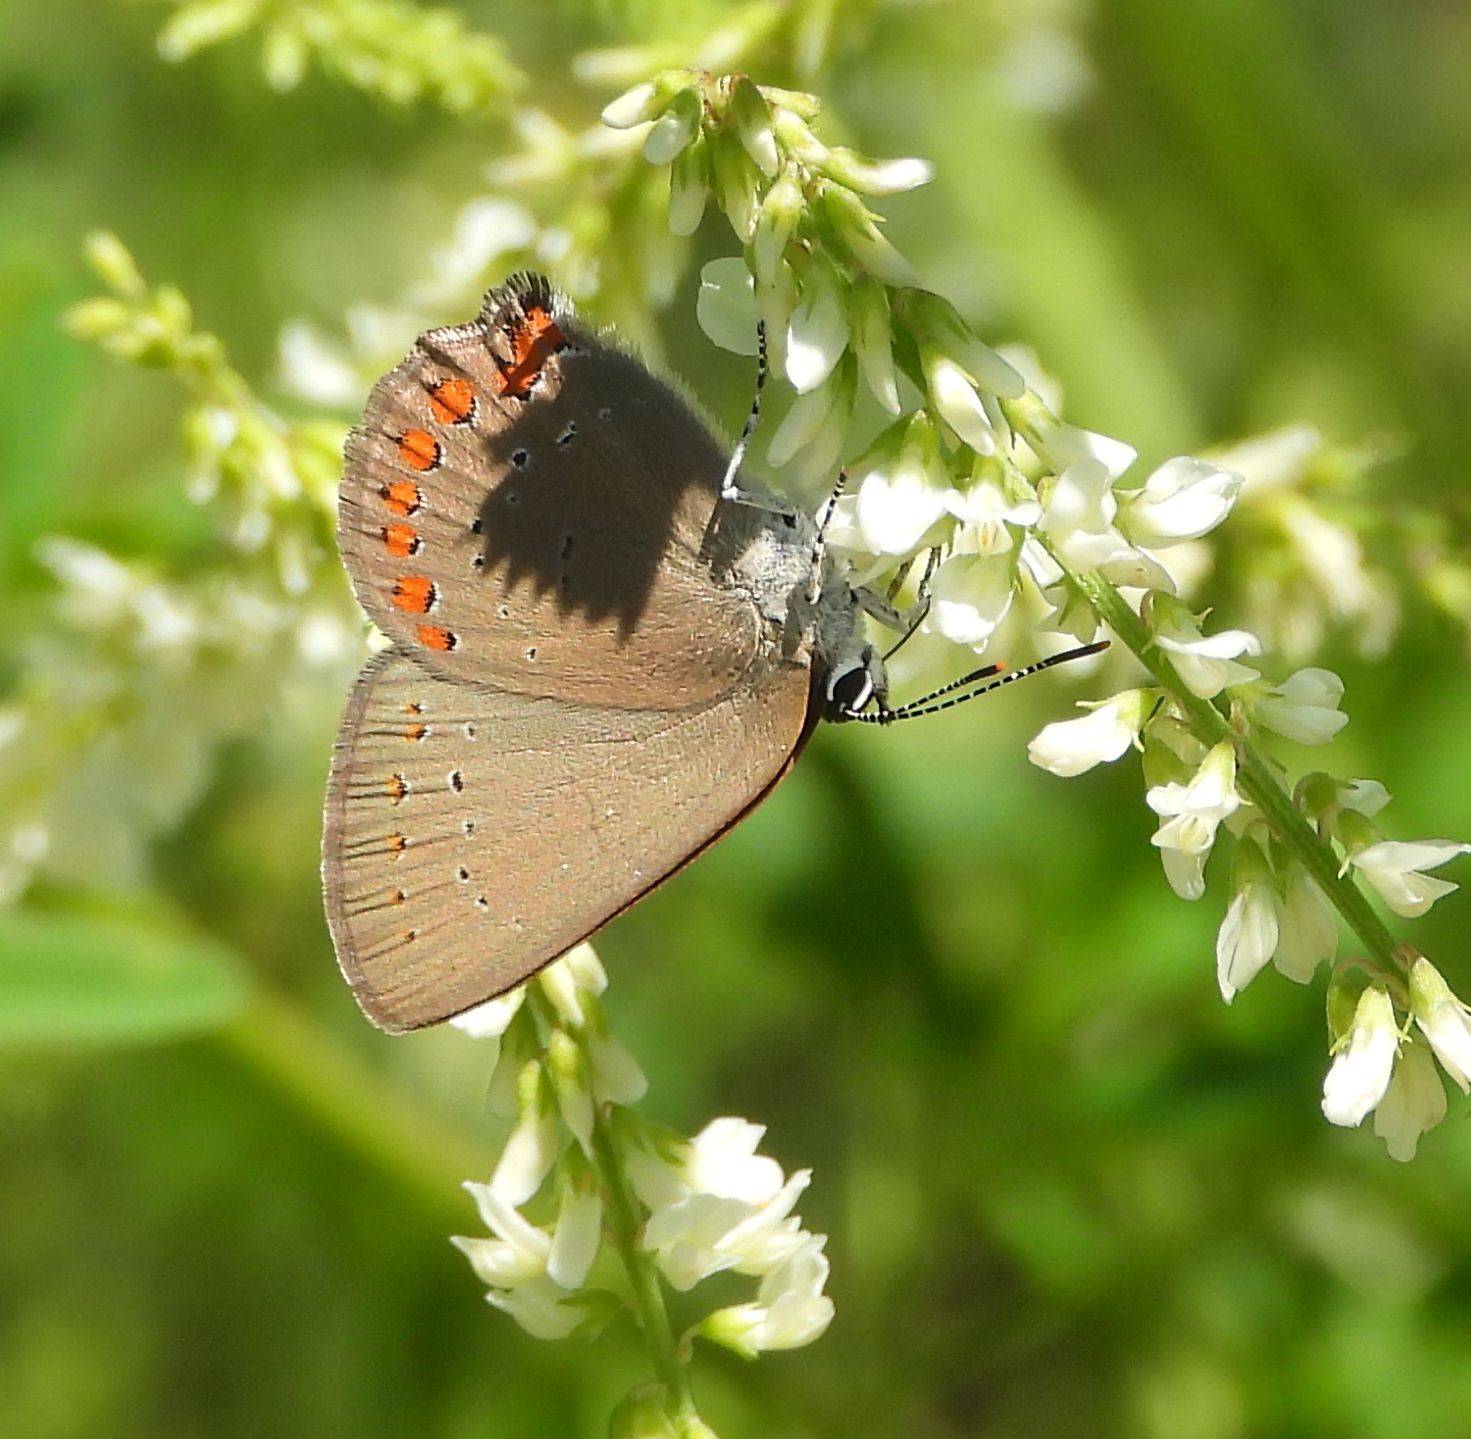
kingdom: Animalia
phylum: Arthropoda
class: Insecta
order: Lepidoptera
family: Lycaenidae
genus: Harkenclenus
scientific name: Harkenclenus titus
